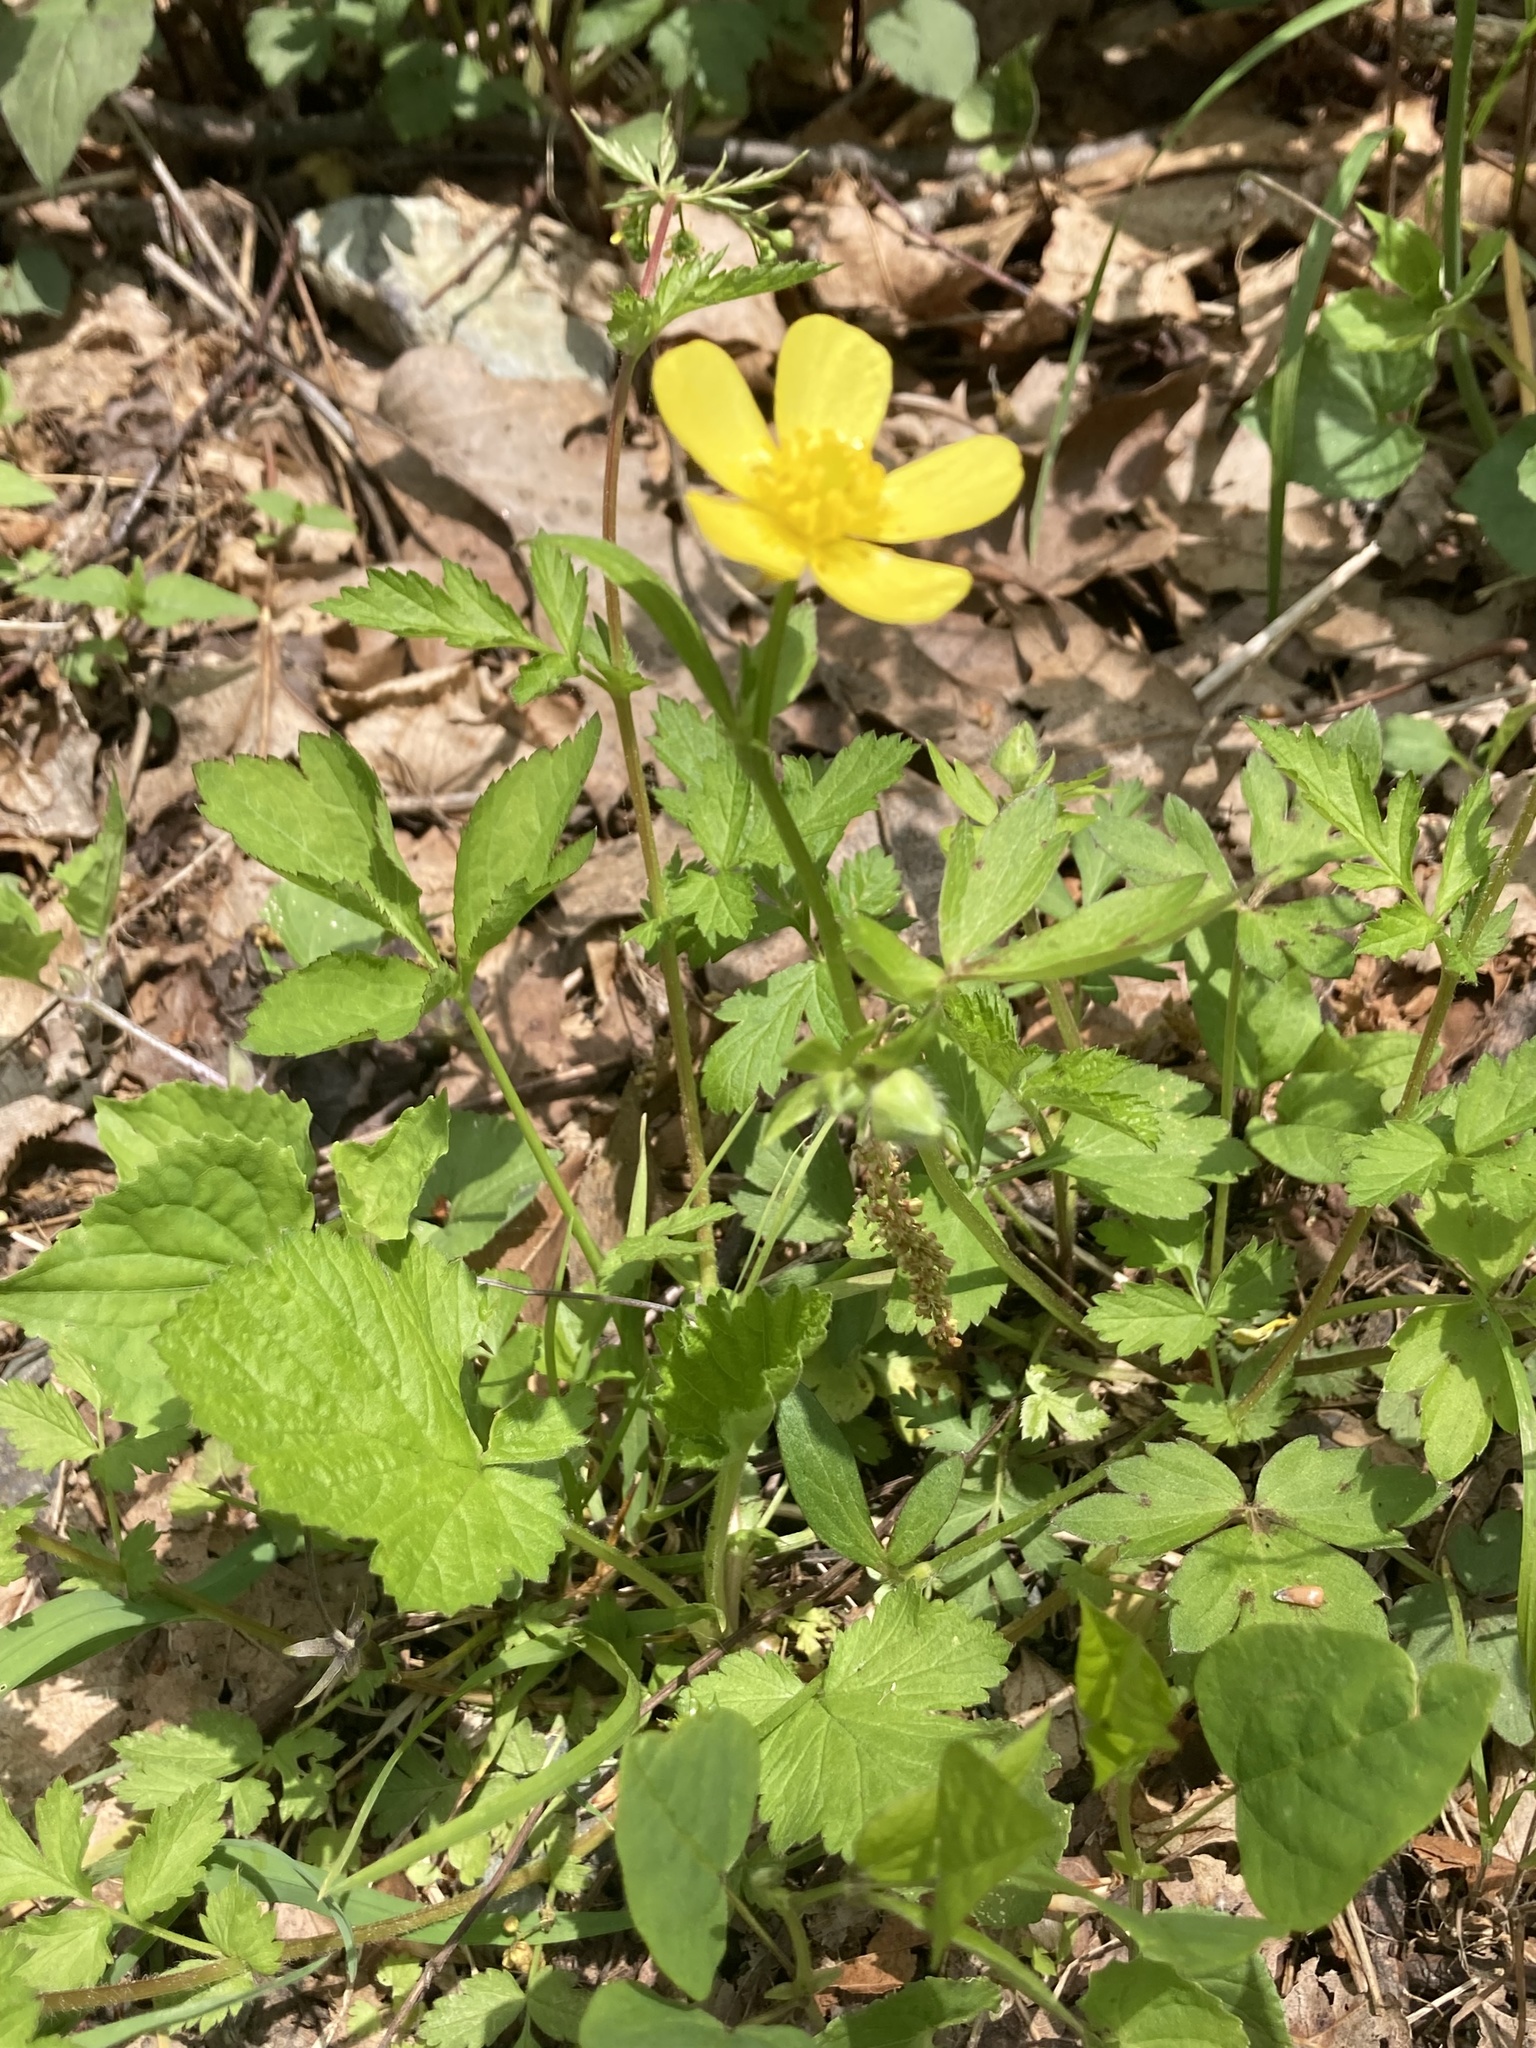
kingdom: Plantae
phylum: Tracheophyta
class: Magnoliopsida
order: Ranunculales
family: Ranunculaceae
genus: Ranunculus
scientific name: Ranunculus hispidus
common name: Bristly buttercup
